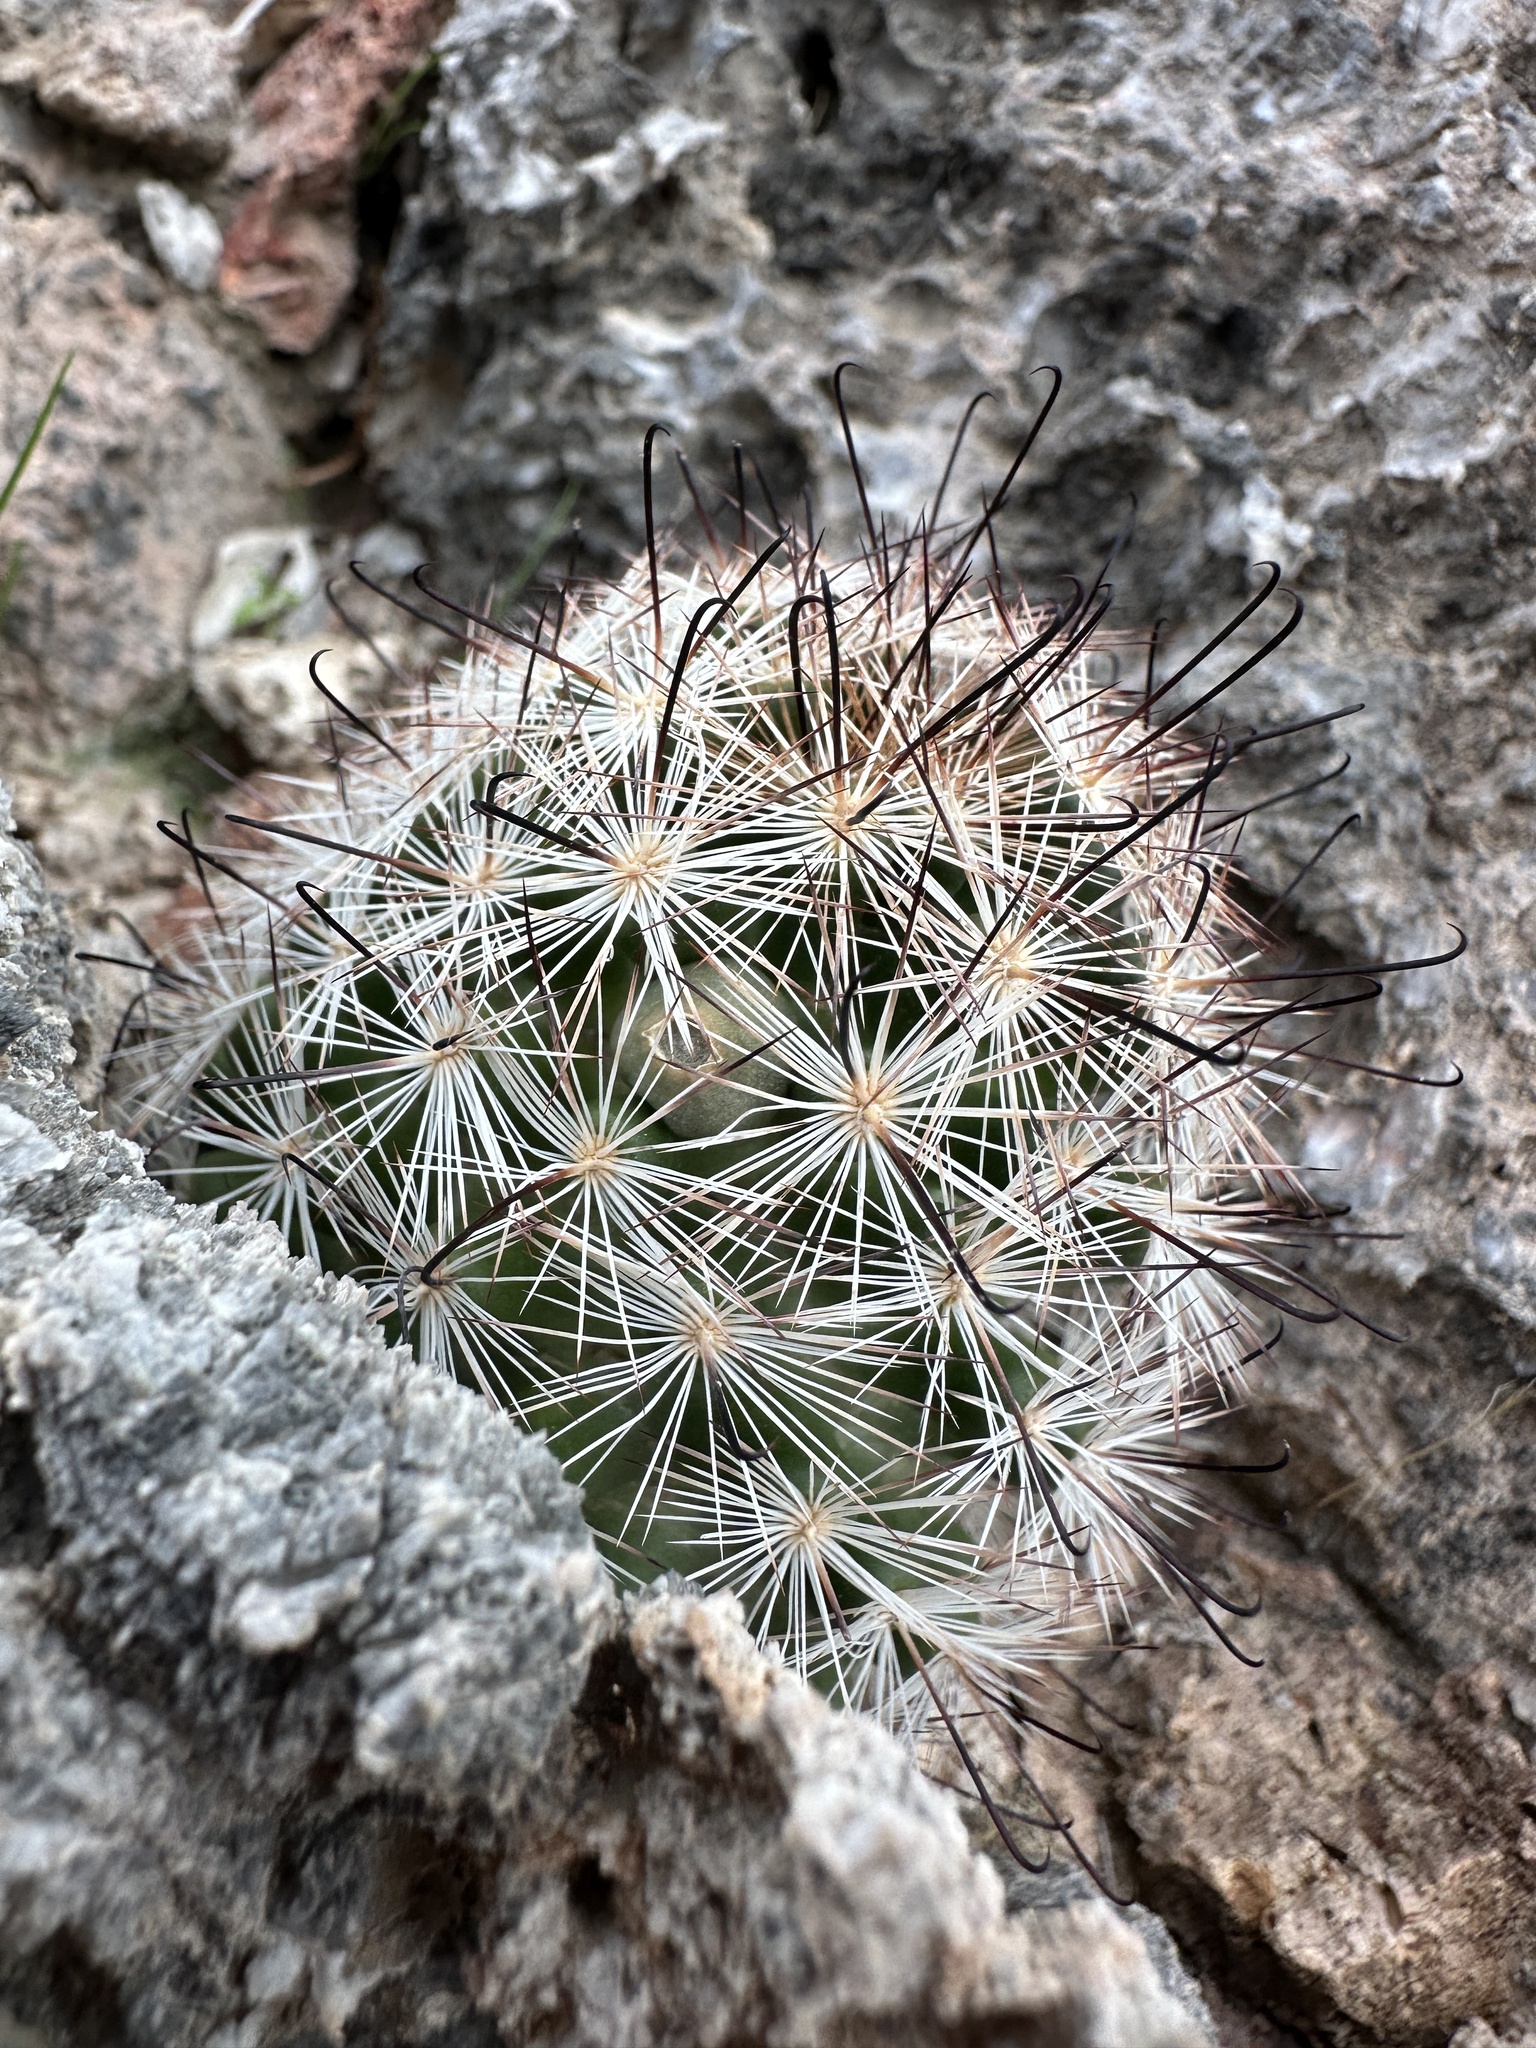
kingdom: Plantae
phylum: Tracheophyta
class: Magnoliopsida
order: Caryophyllales
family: Cactaceae
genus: Cochemiea
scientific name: Cochemiea tetrancistra
